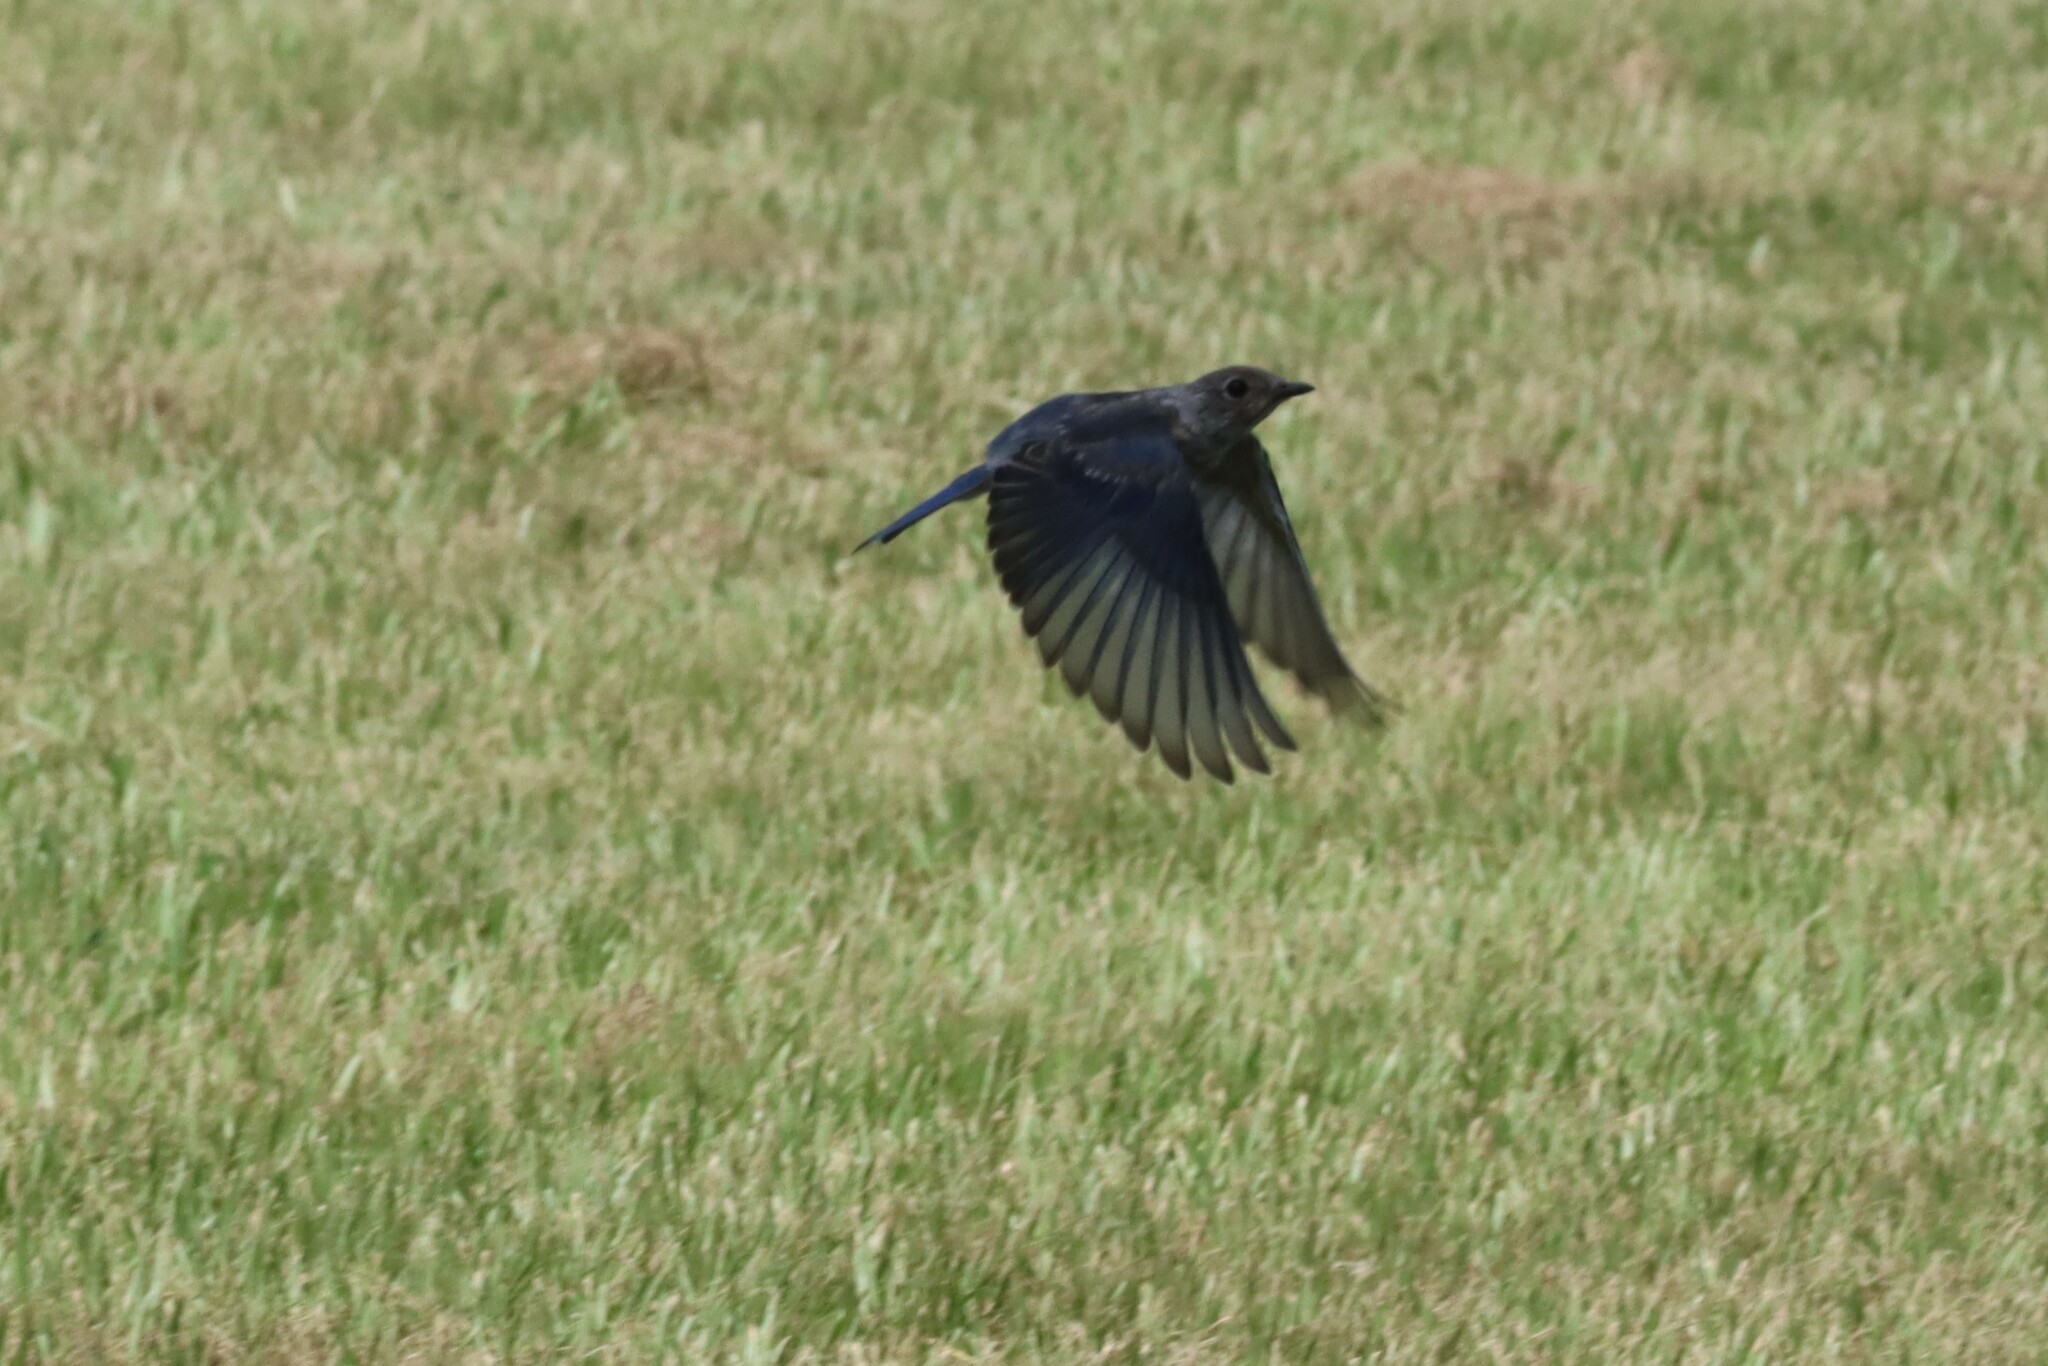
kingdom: Animalia
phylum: Chordata
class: Aves
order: Passeriformes
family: Turdidae
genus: Sialia
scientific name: Sialia sialis
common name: Eastern bluebird
